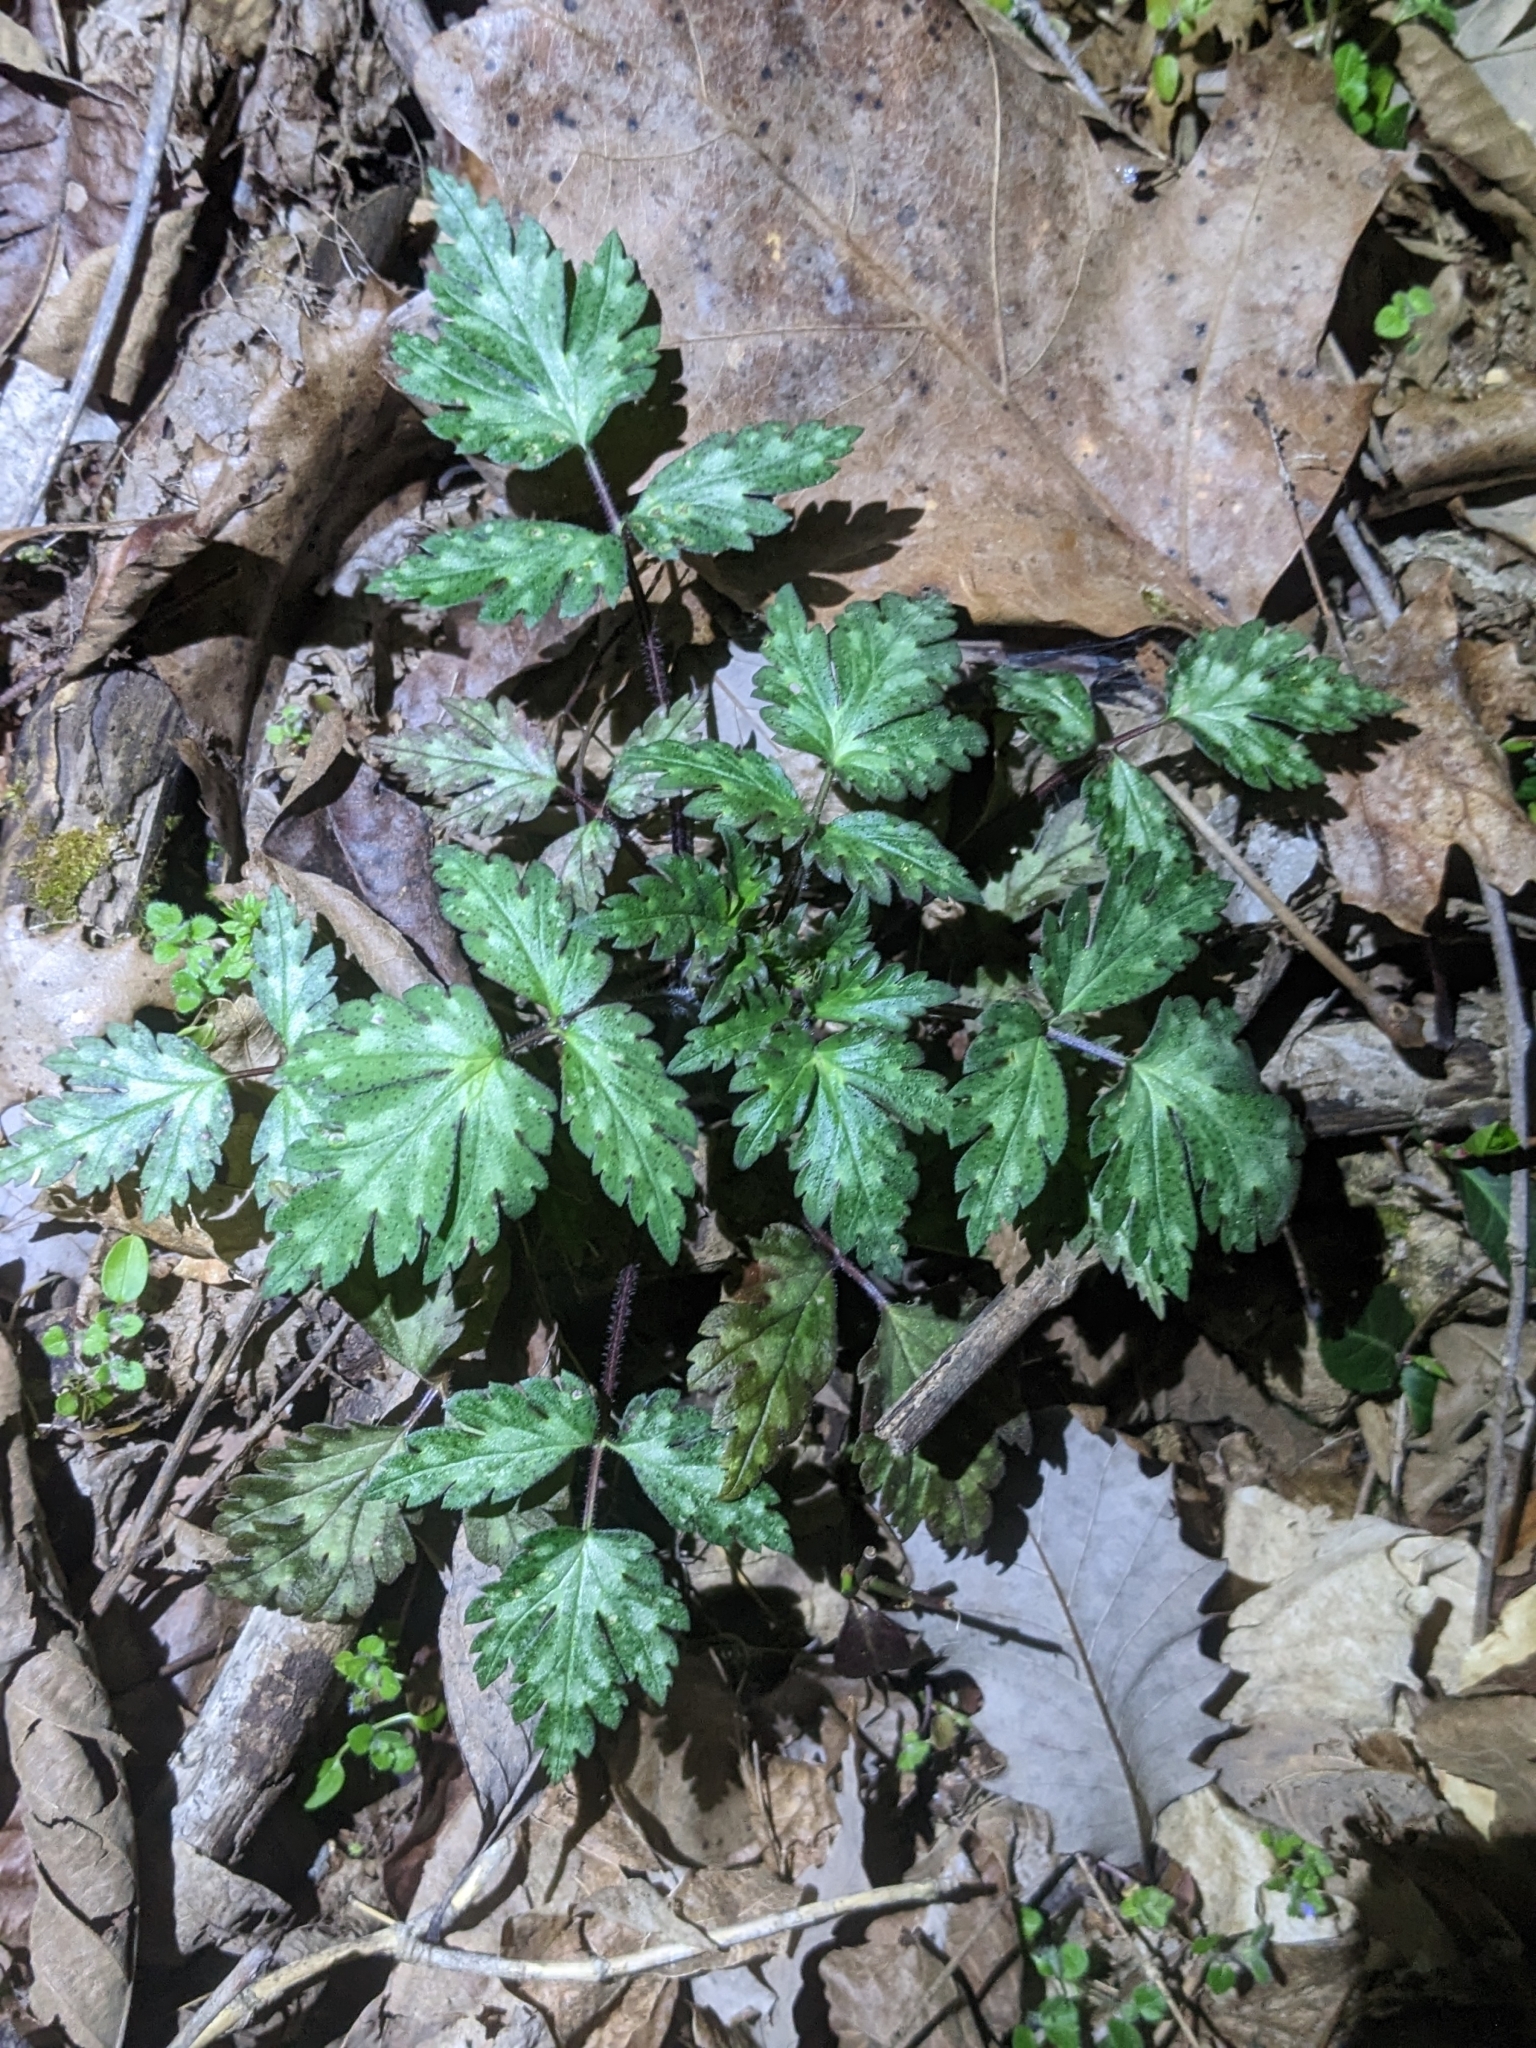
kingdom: Plantae
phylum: Tracheophyta
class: Magnoliopsida
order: Boraginales
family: Hydrophyllaceae
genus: Phacelia
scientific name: Phacelia bipinnatifida
